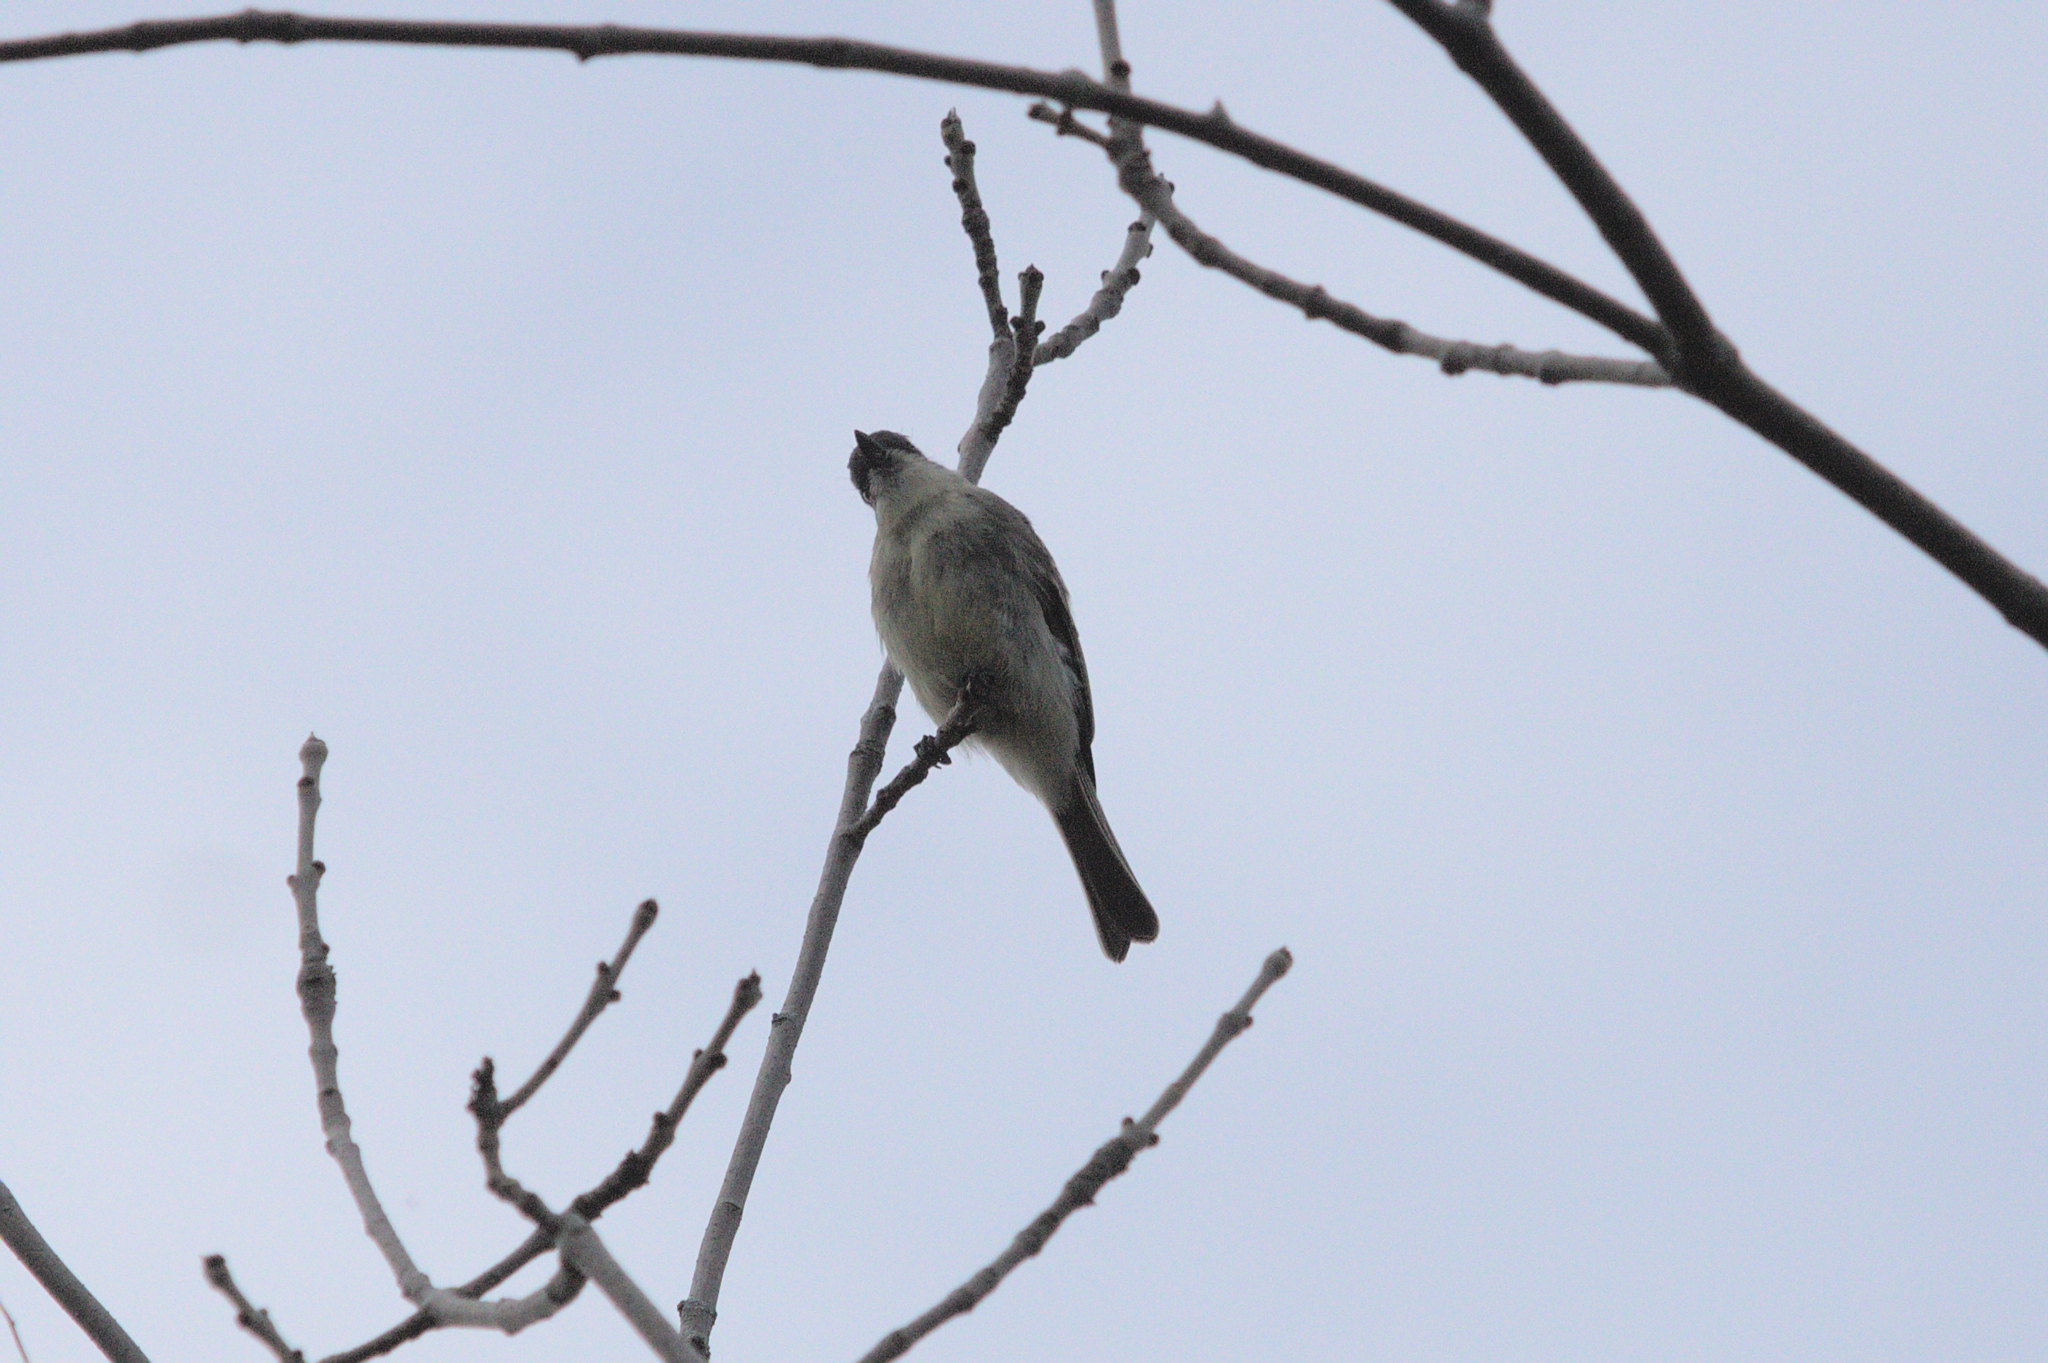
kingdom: Animalia
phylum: Chordata
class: Aves
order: Passeriformes
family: Tyrannidae
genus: Sayornis
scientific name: Sayornis phoebe
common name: Eastern phoebe
